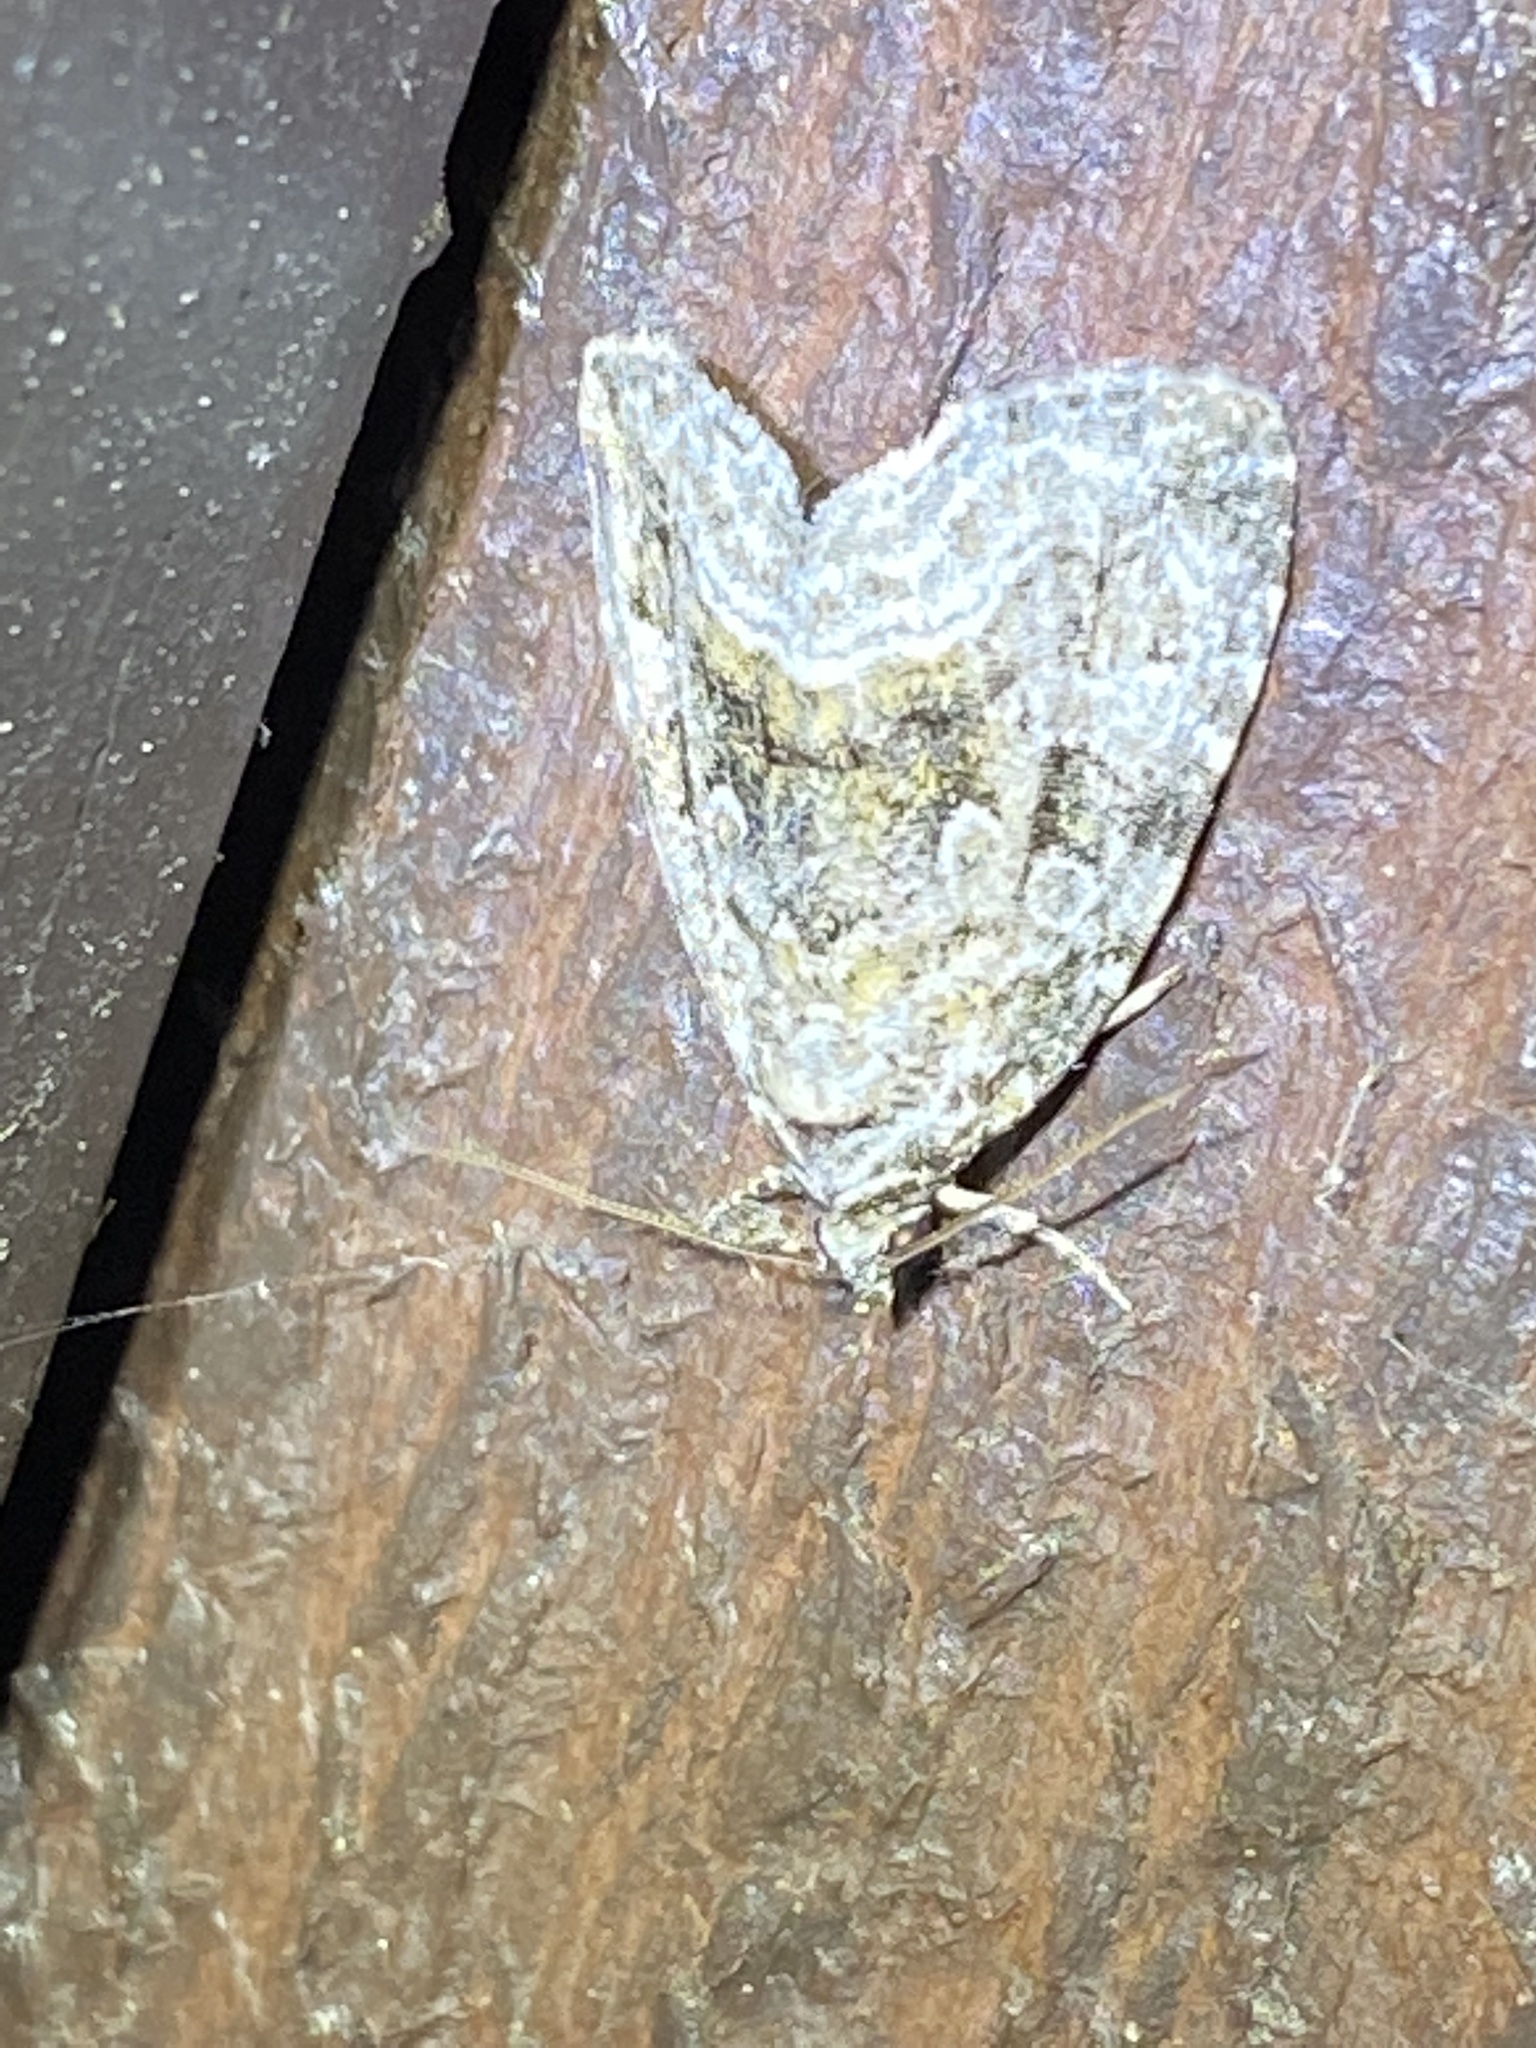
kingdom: Animalia
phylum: Arthropoda
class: Insecta
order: Lepidoptera
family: Noctuidae
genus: Protodeltote
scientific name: Protodeltote muscosula
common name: Large mossy glyph
